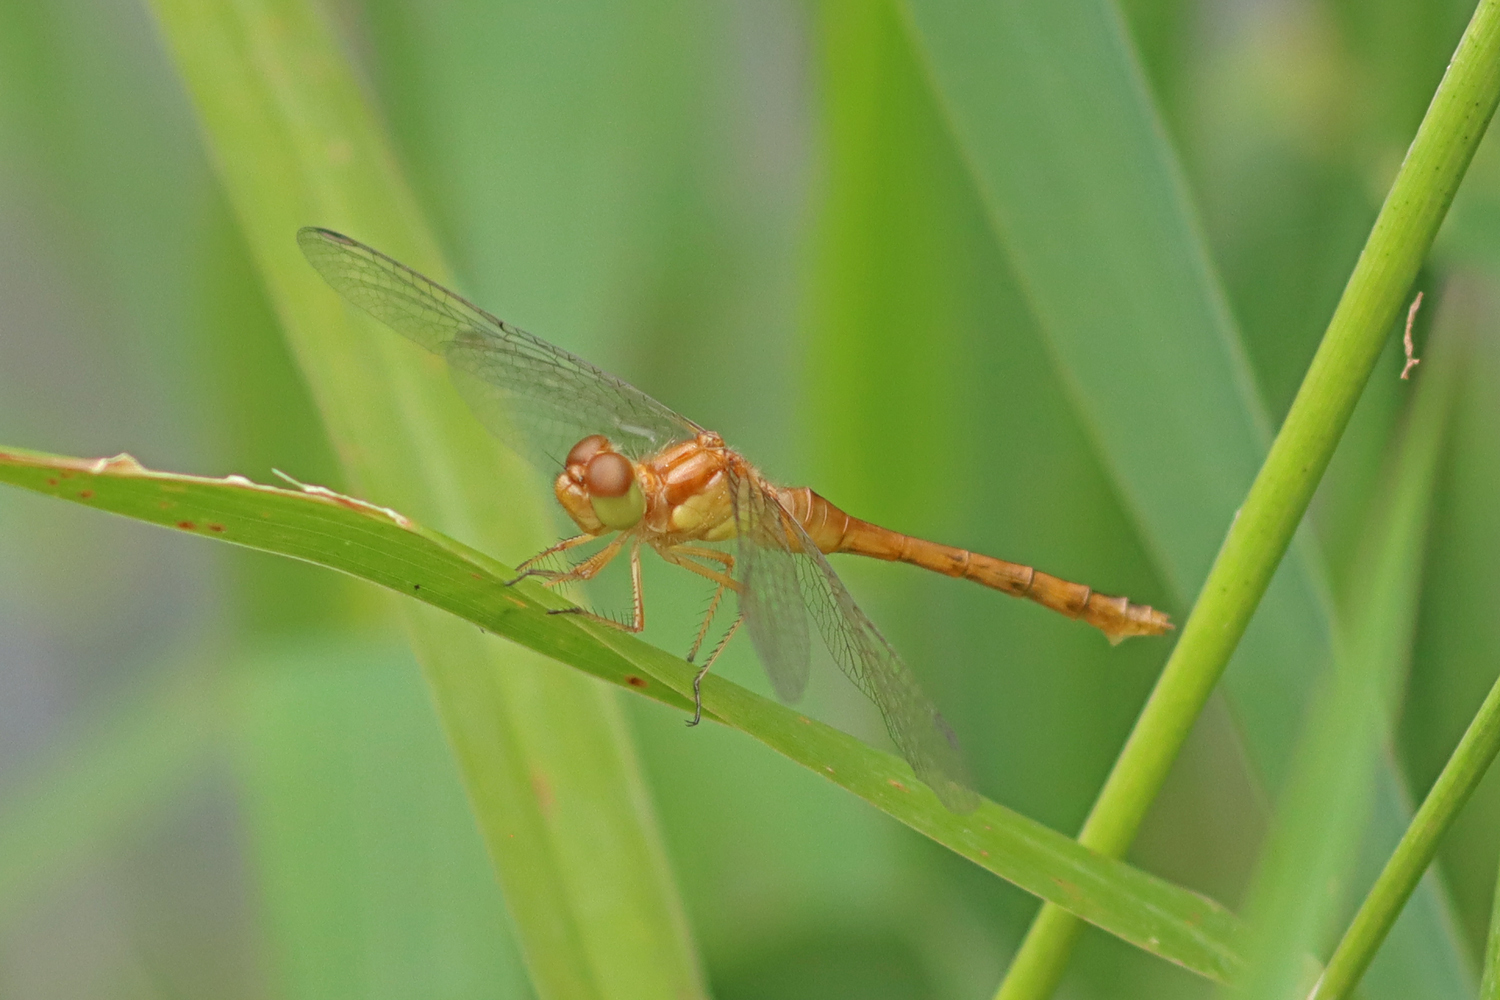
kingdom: Animalia
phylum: Arthropoda
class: Insecta
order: Odonata
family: Libellulidae
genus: Sympetrum
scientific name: Sympetrum vicinum
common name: Autumn meadowhawk
